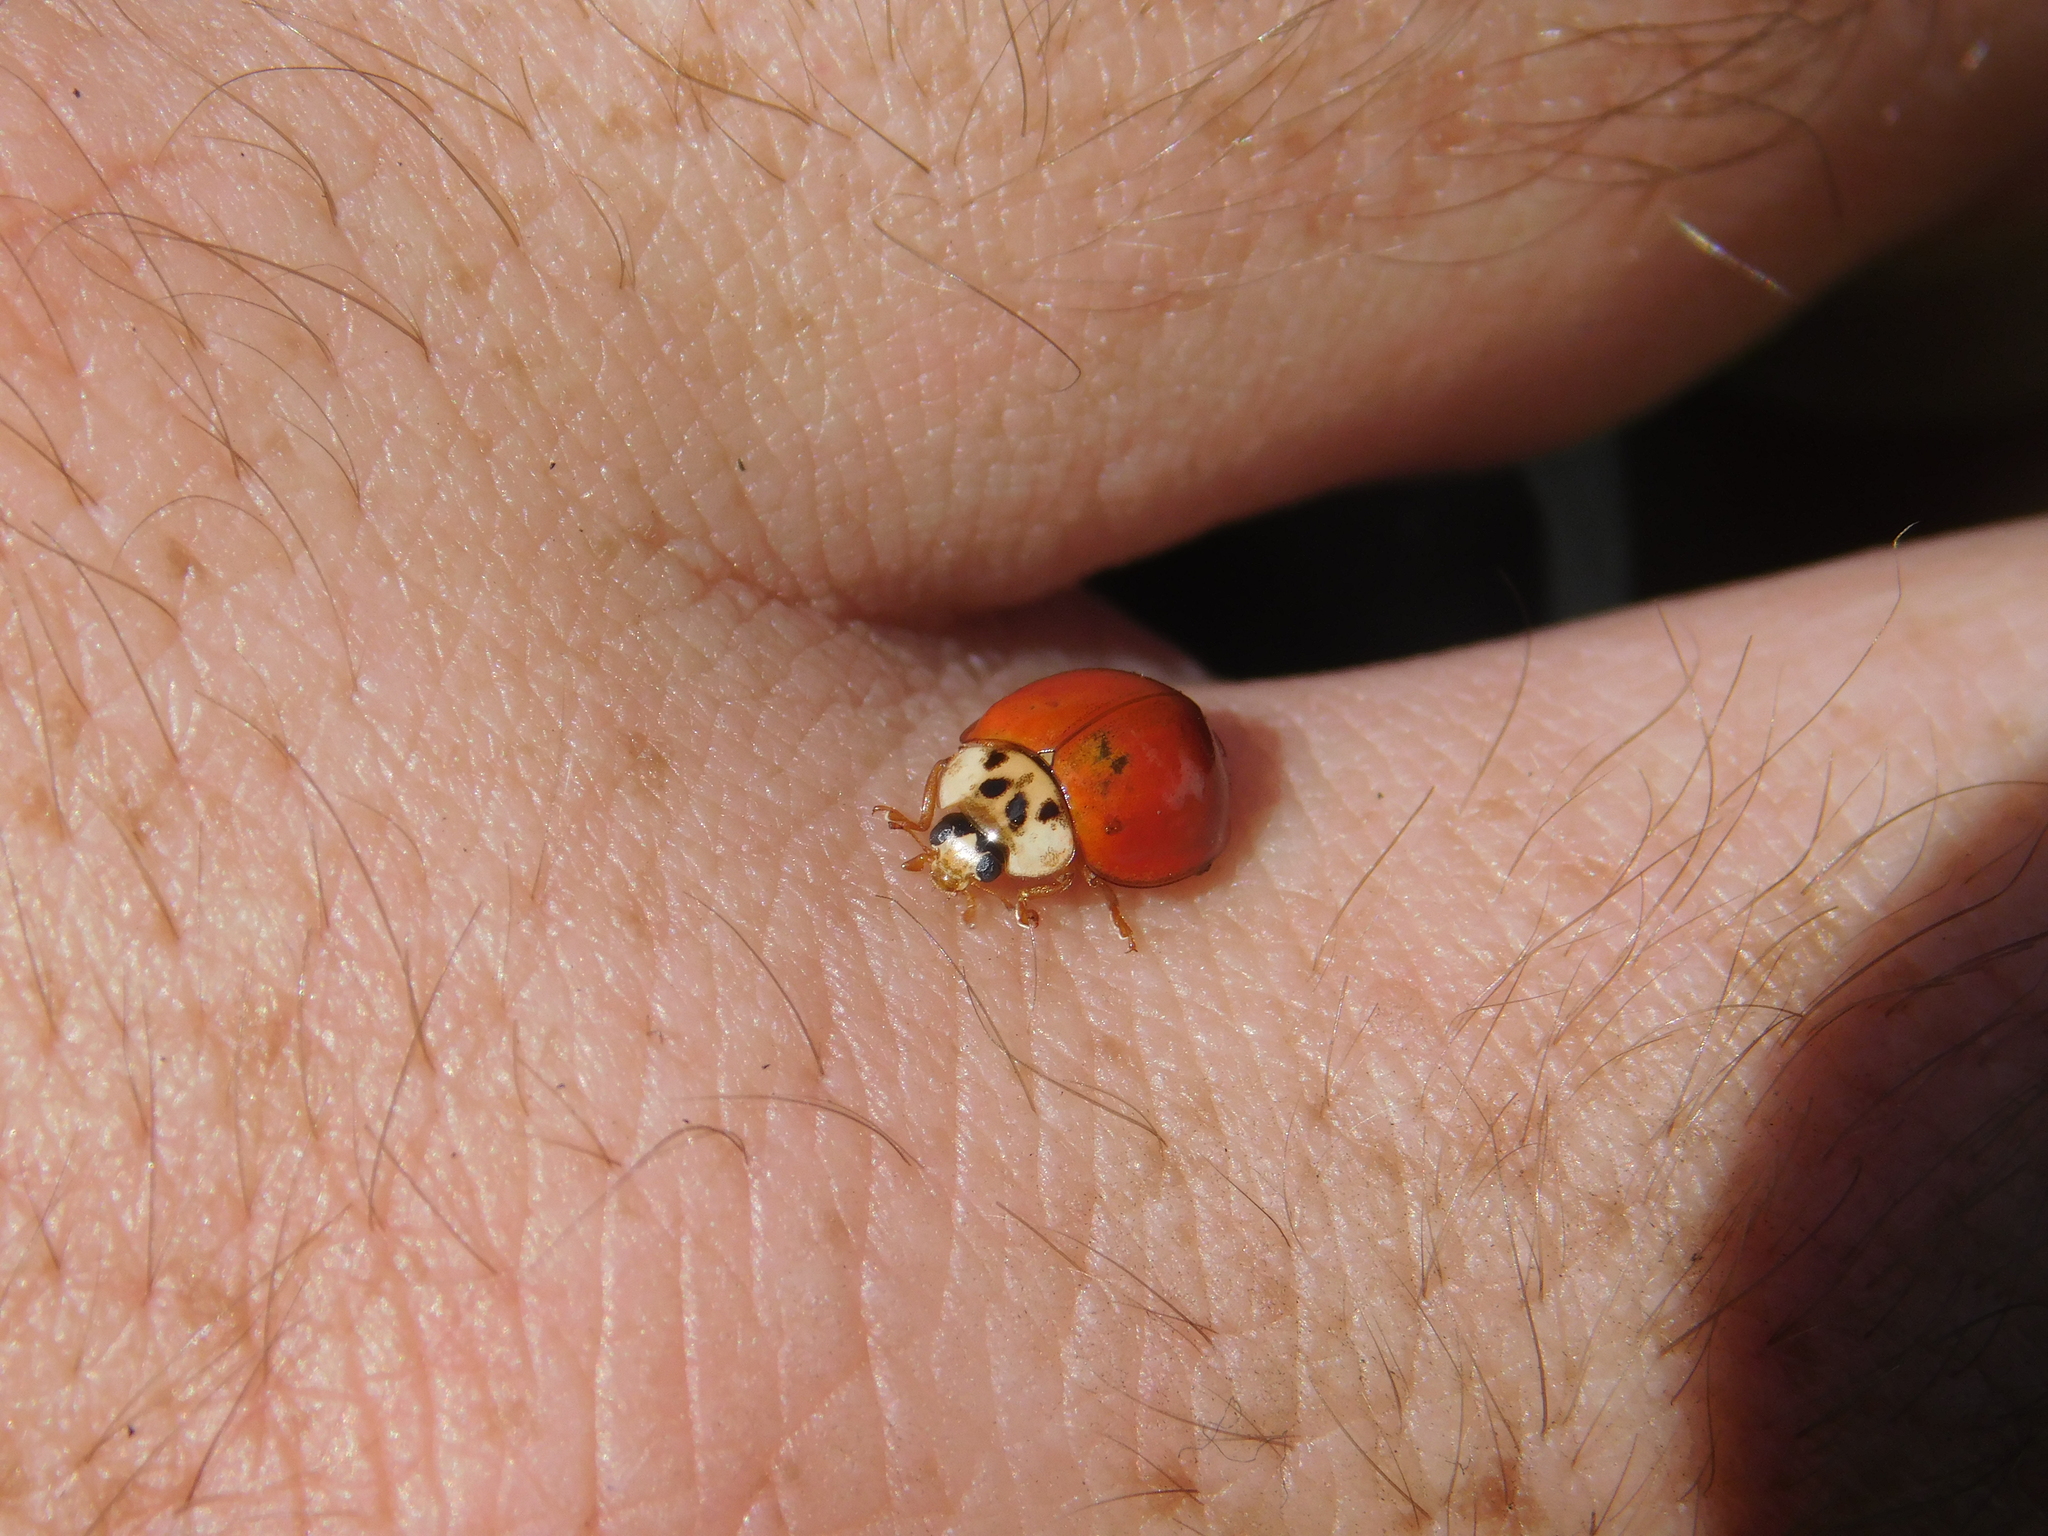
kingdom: Animalia
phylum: Arthropoda
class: Insecta
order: Coleoptera
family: Coccinellidae
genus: Harmonia
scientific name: Harmonia axyridis
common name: Harlequin ladybird
